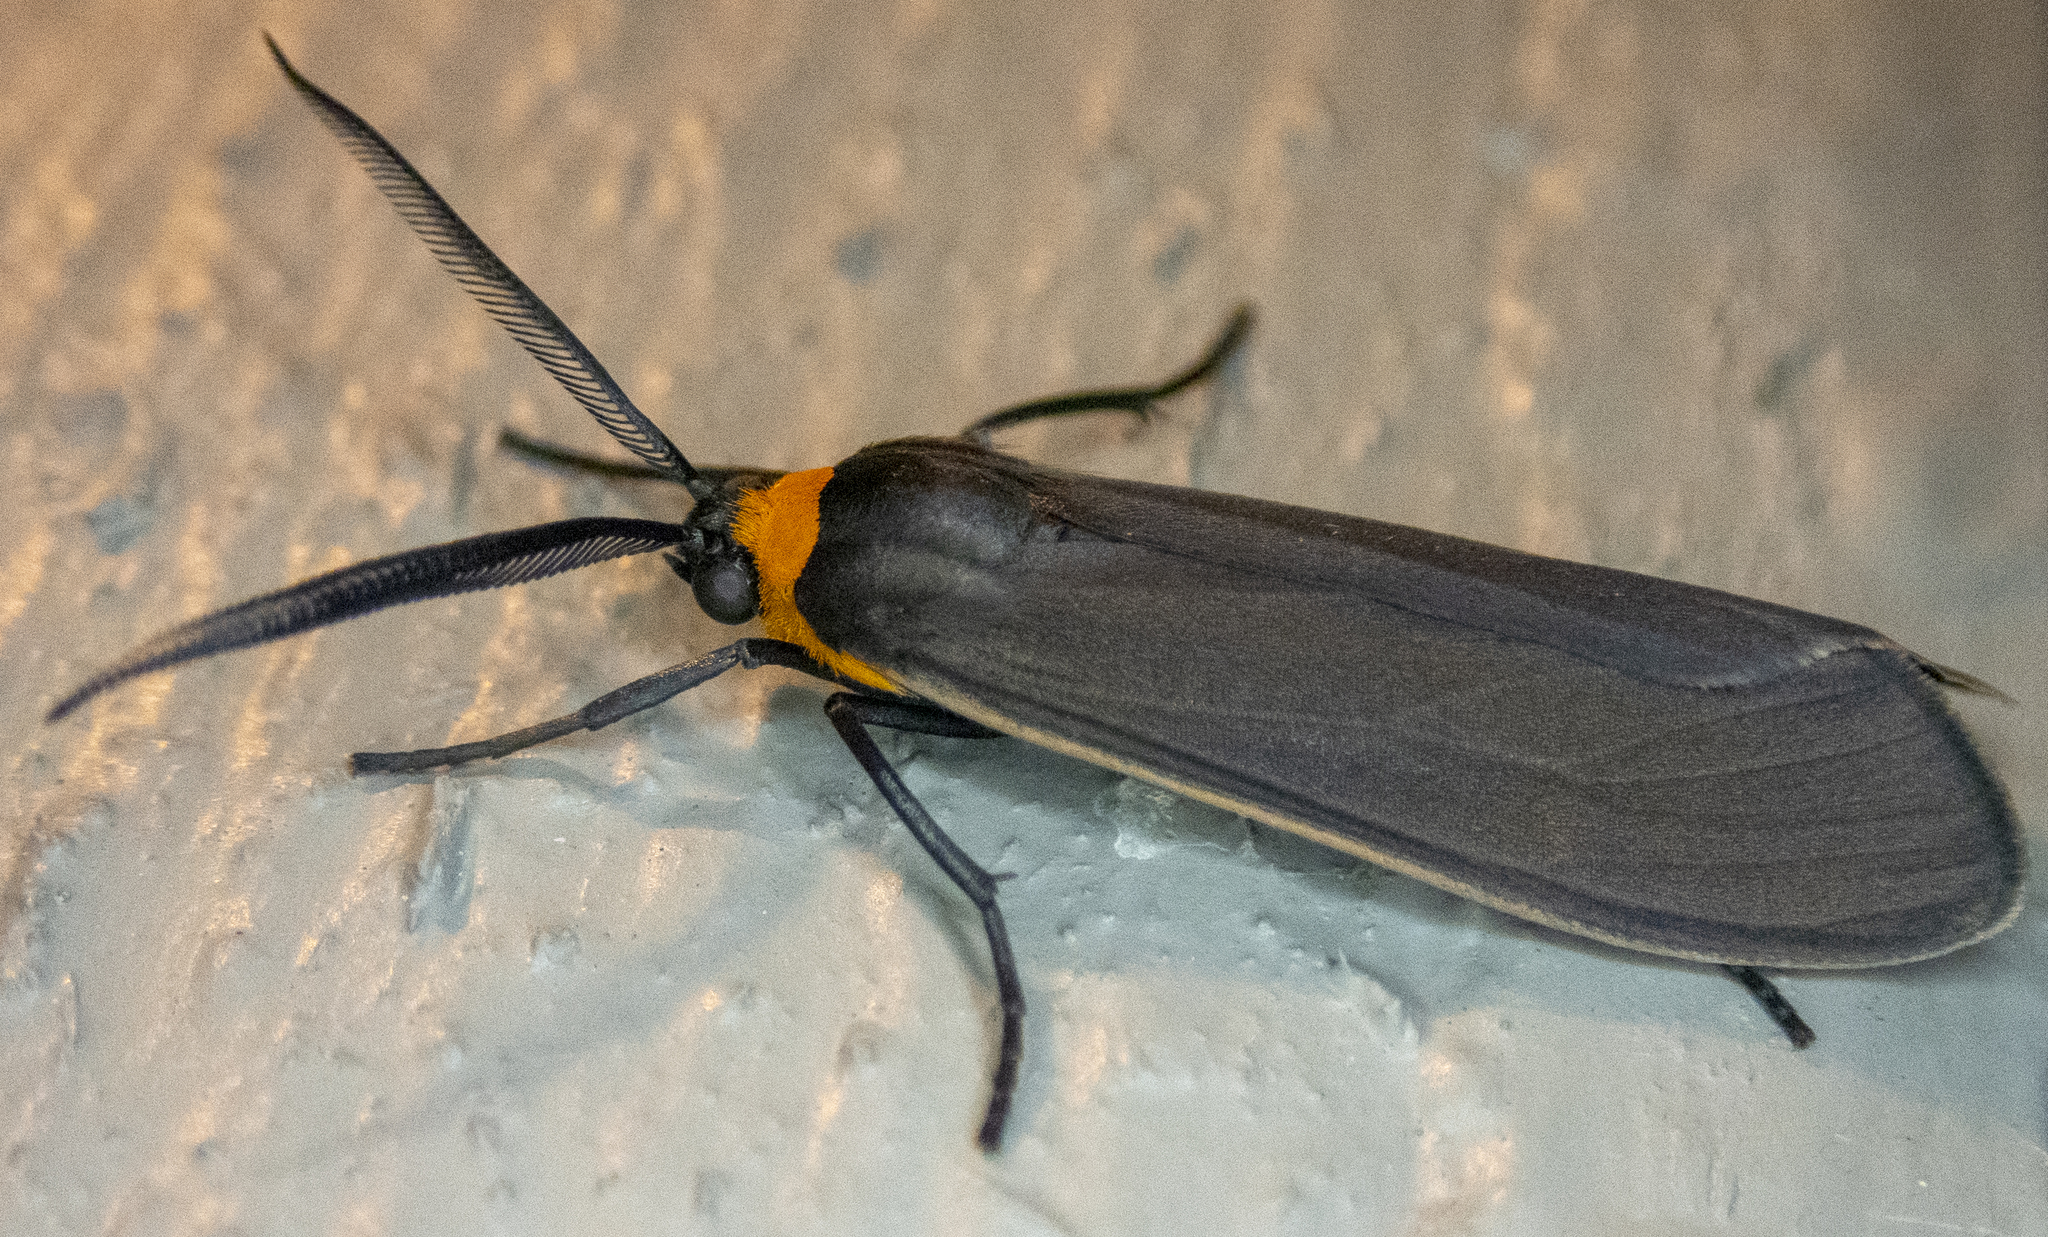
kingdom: Animalia
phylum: Arthropoda
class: Insecta
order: Lepidoptera
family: Erebidae
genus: Cisseps
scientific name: Cisseps fulvicollis
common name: Yellow-collared scape moth
